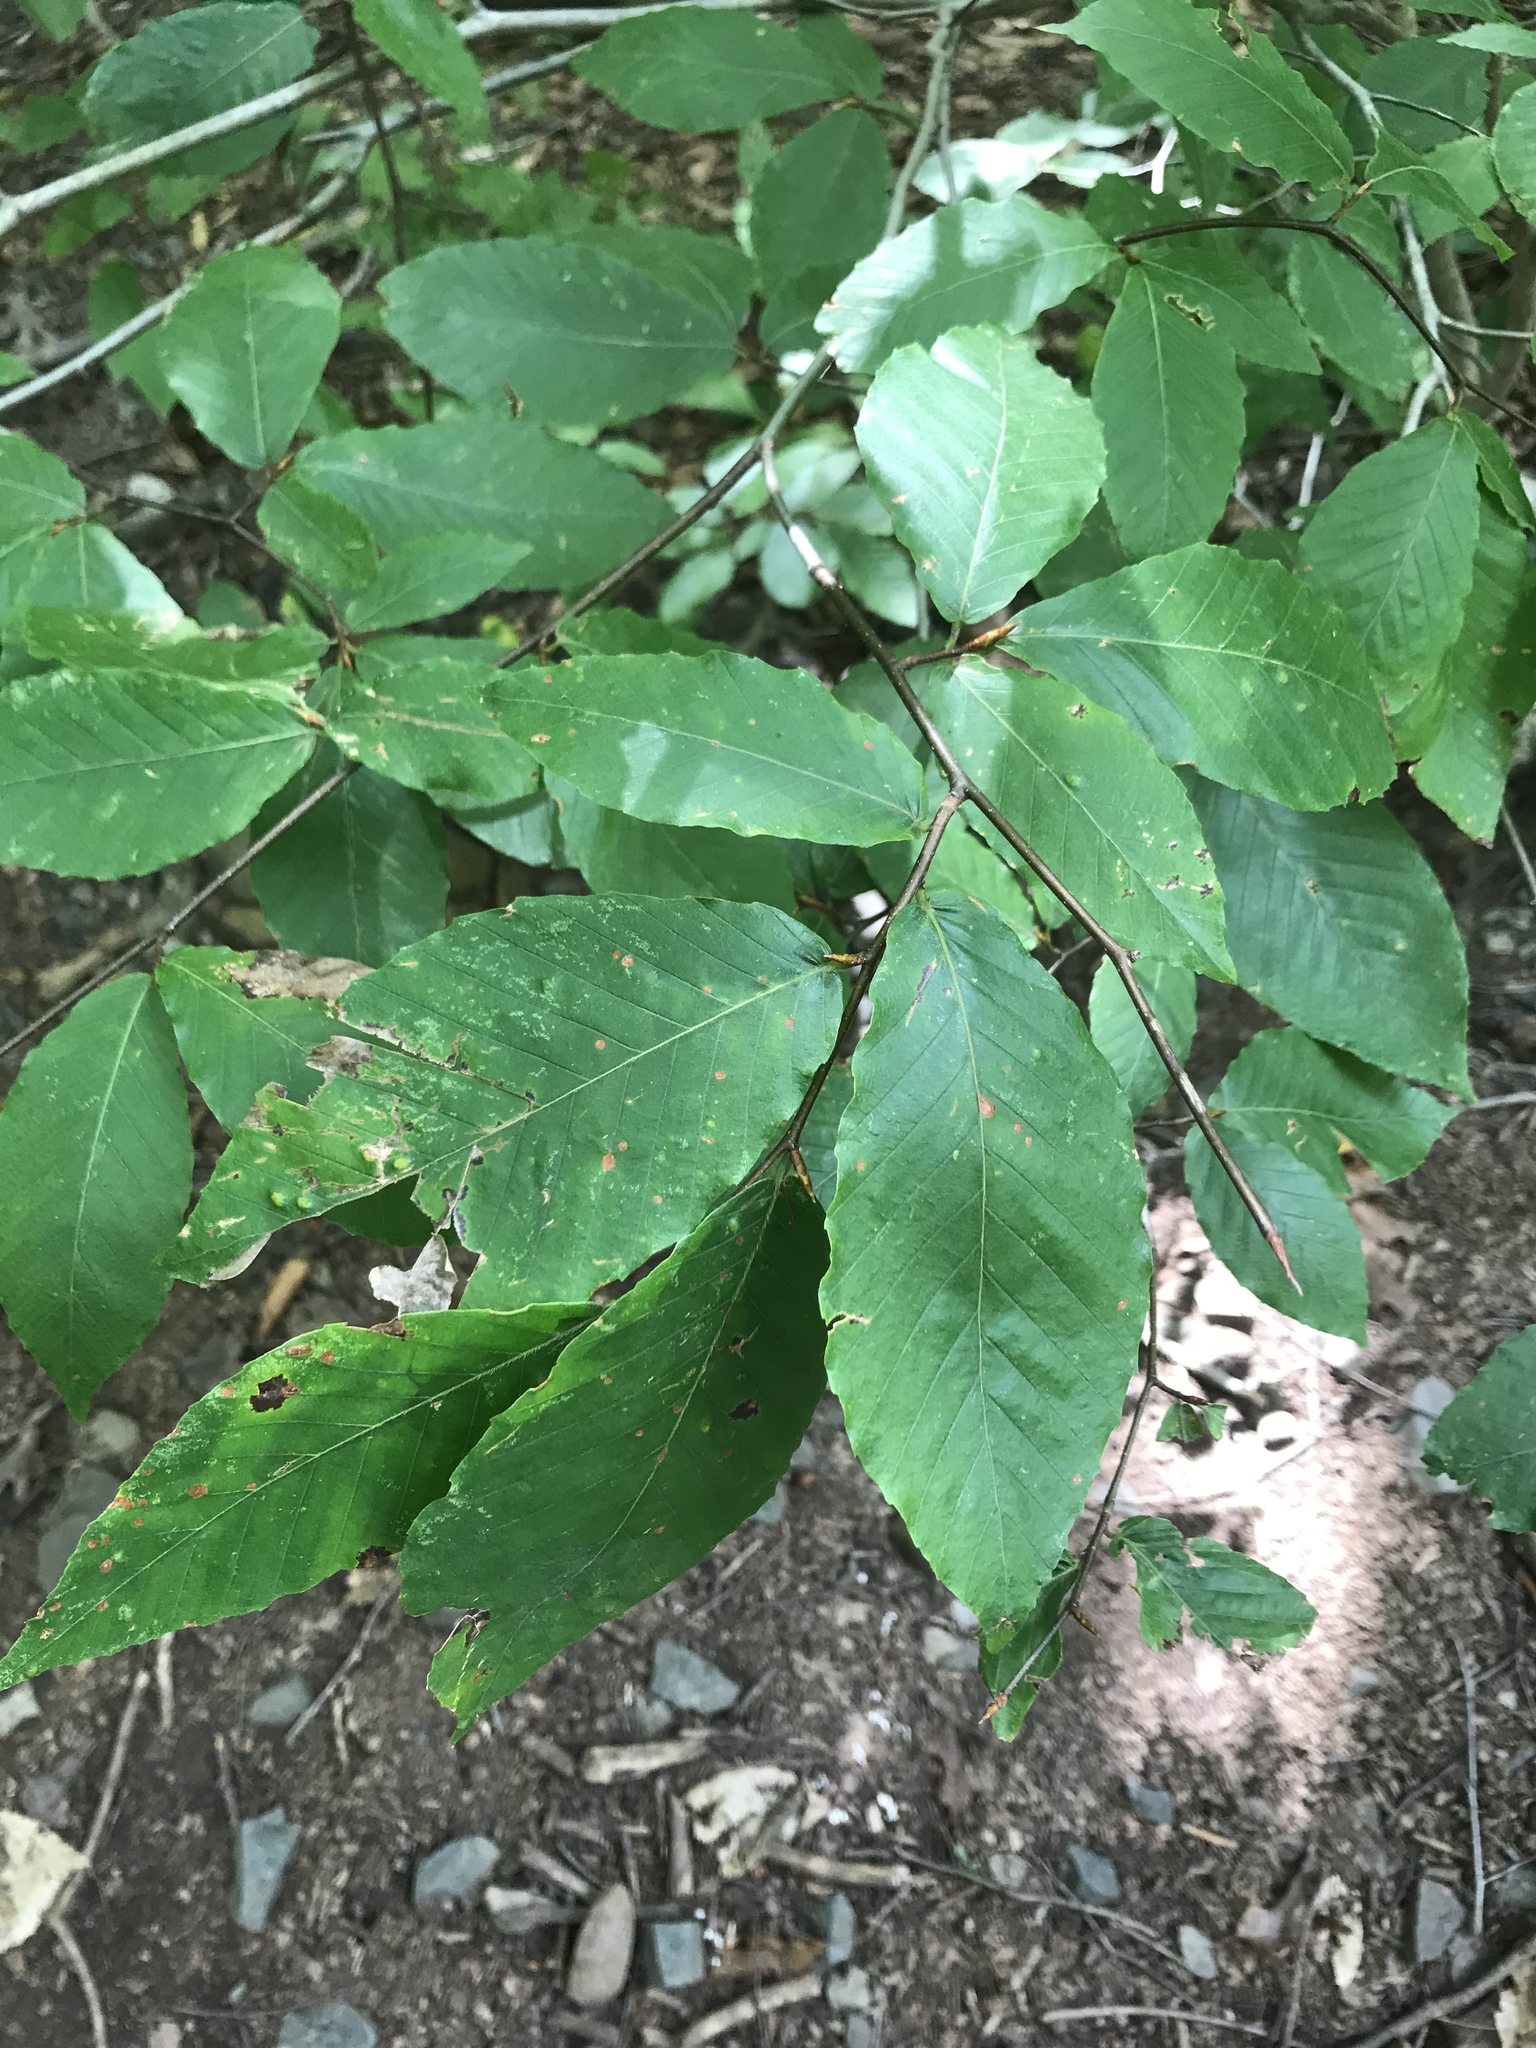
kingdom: Plantae
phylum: Tracheophyta
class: Magnoliopsida
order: Fagales
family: Fagaceae
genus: Fagus
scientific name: Fagus grandifolia
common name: American beech
